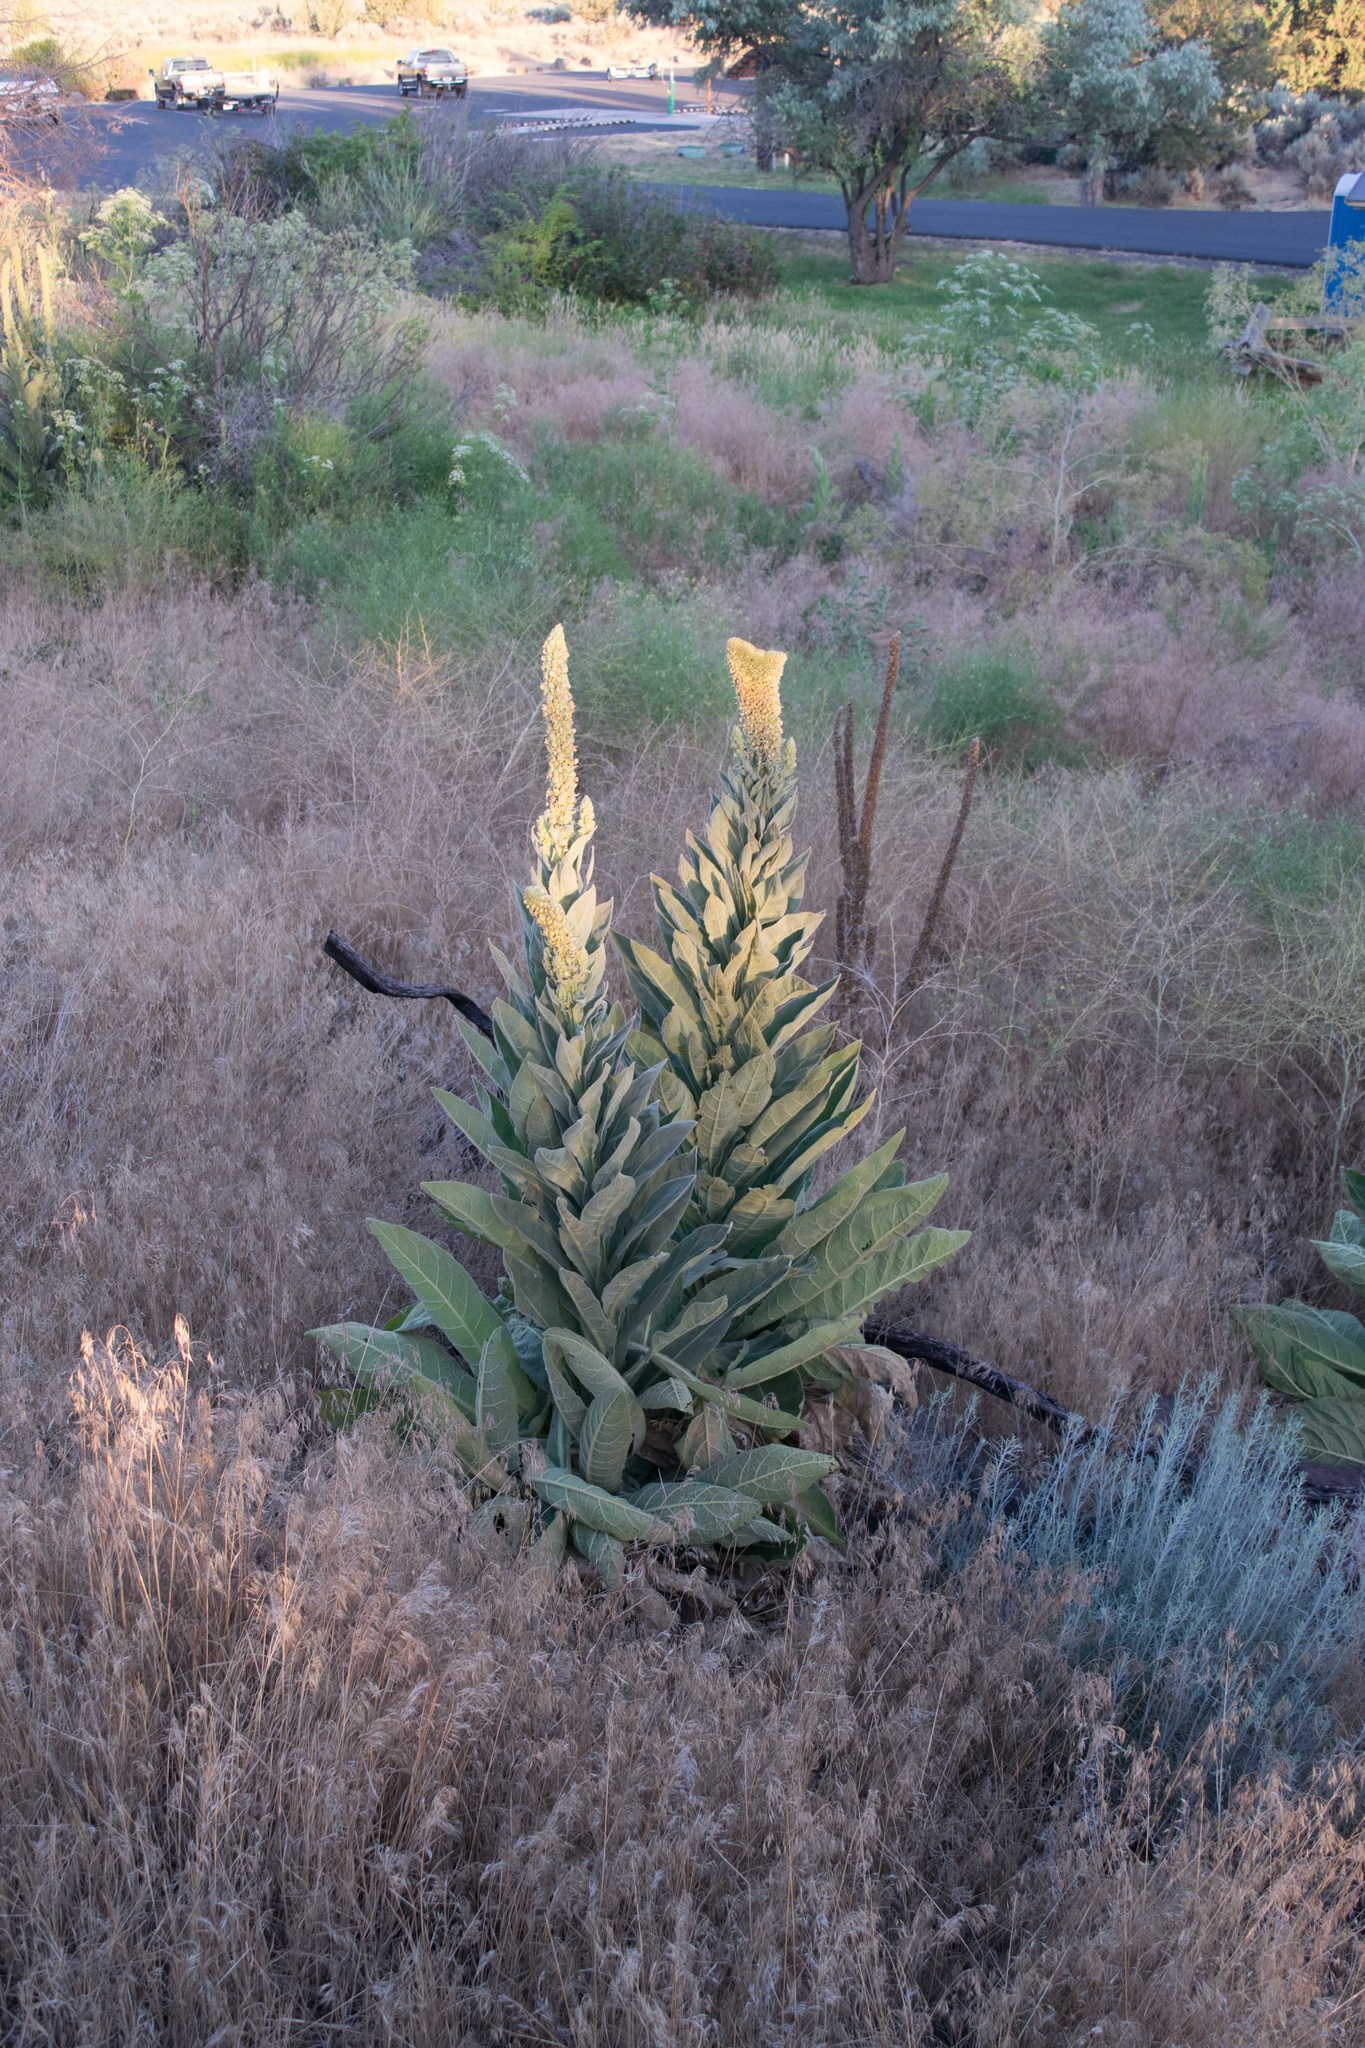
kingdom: Plantae
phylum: Tracheophyta
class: Magnoliopsida
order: Lamiales
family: Scrophulariaceae
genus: Verbascum
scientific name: Verbascum thapsus
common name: Common mullein
